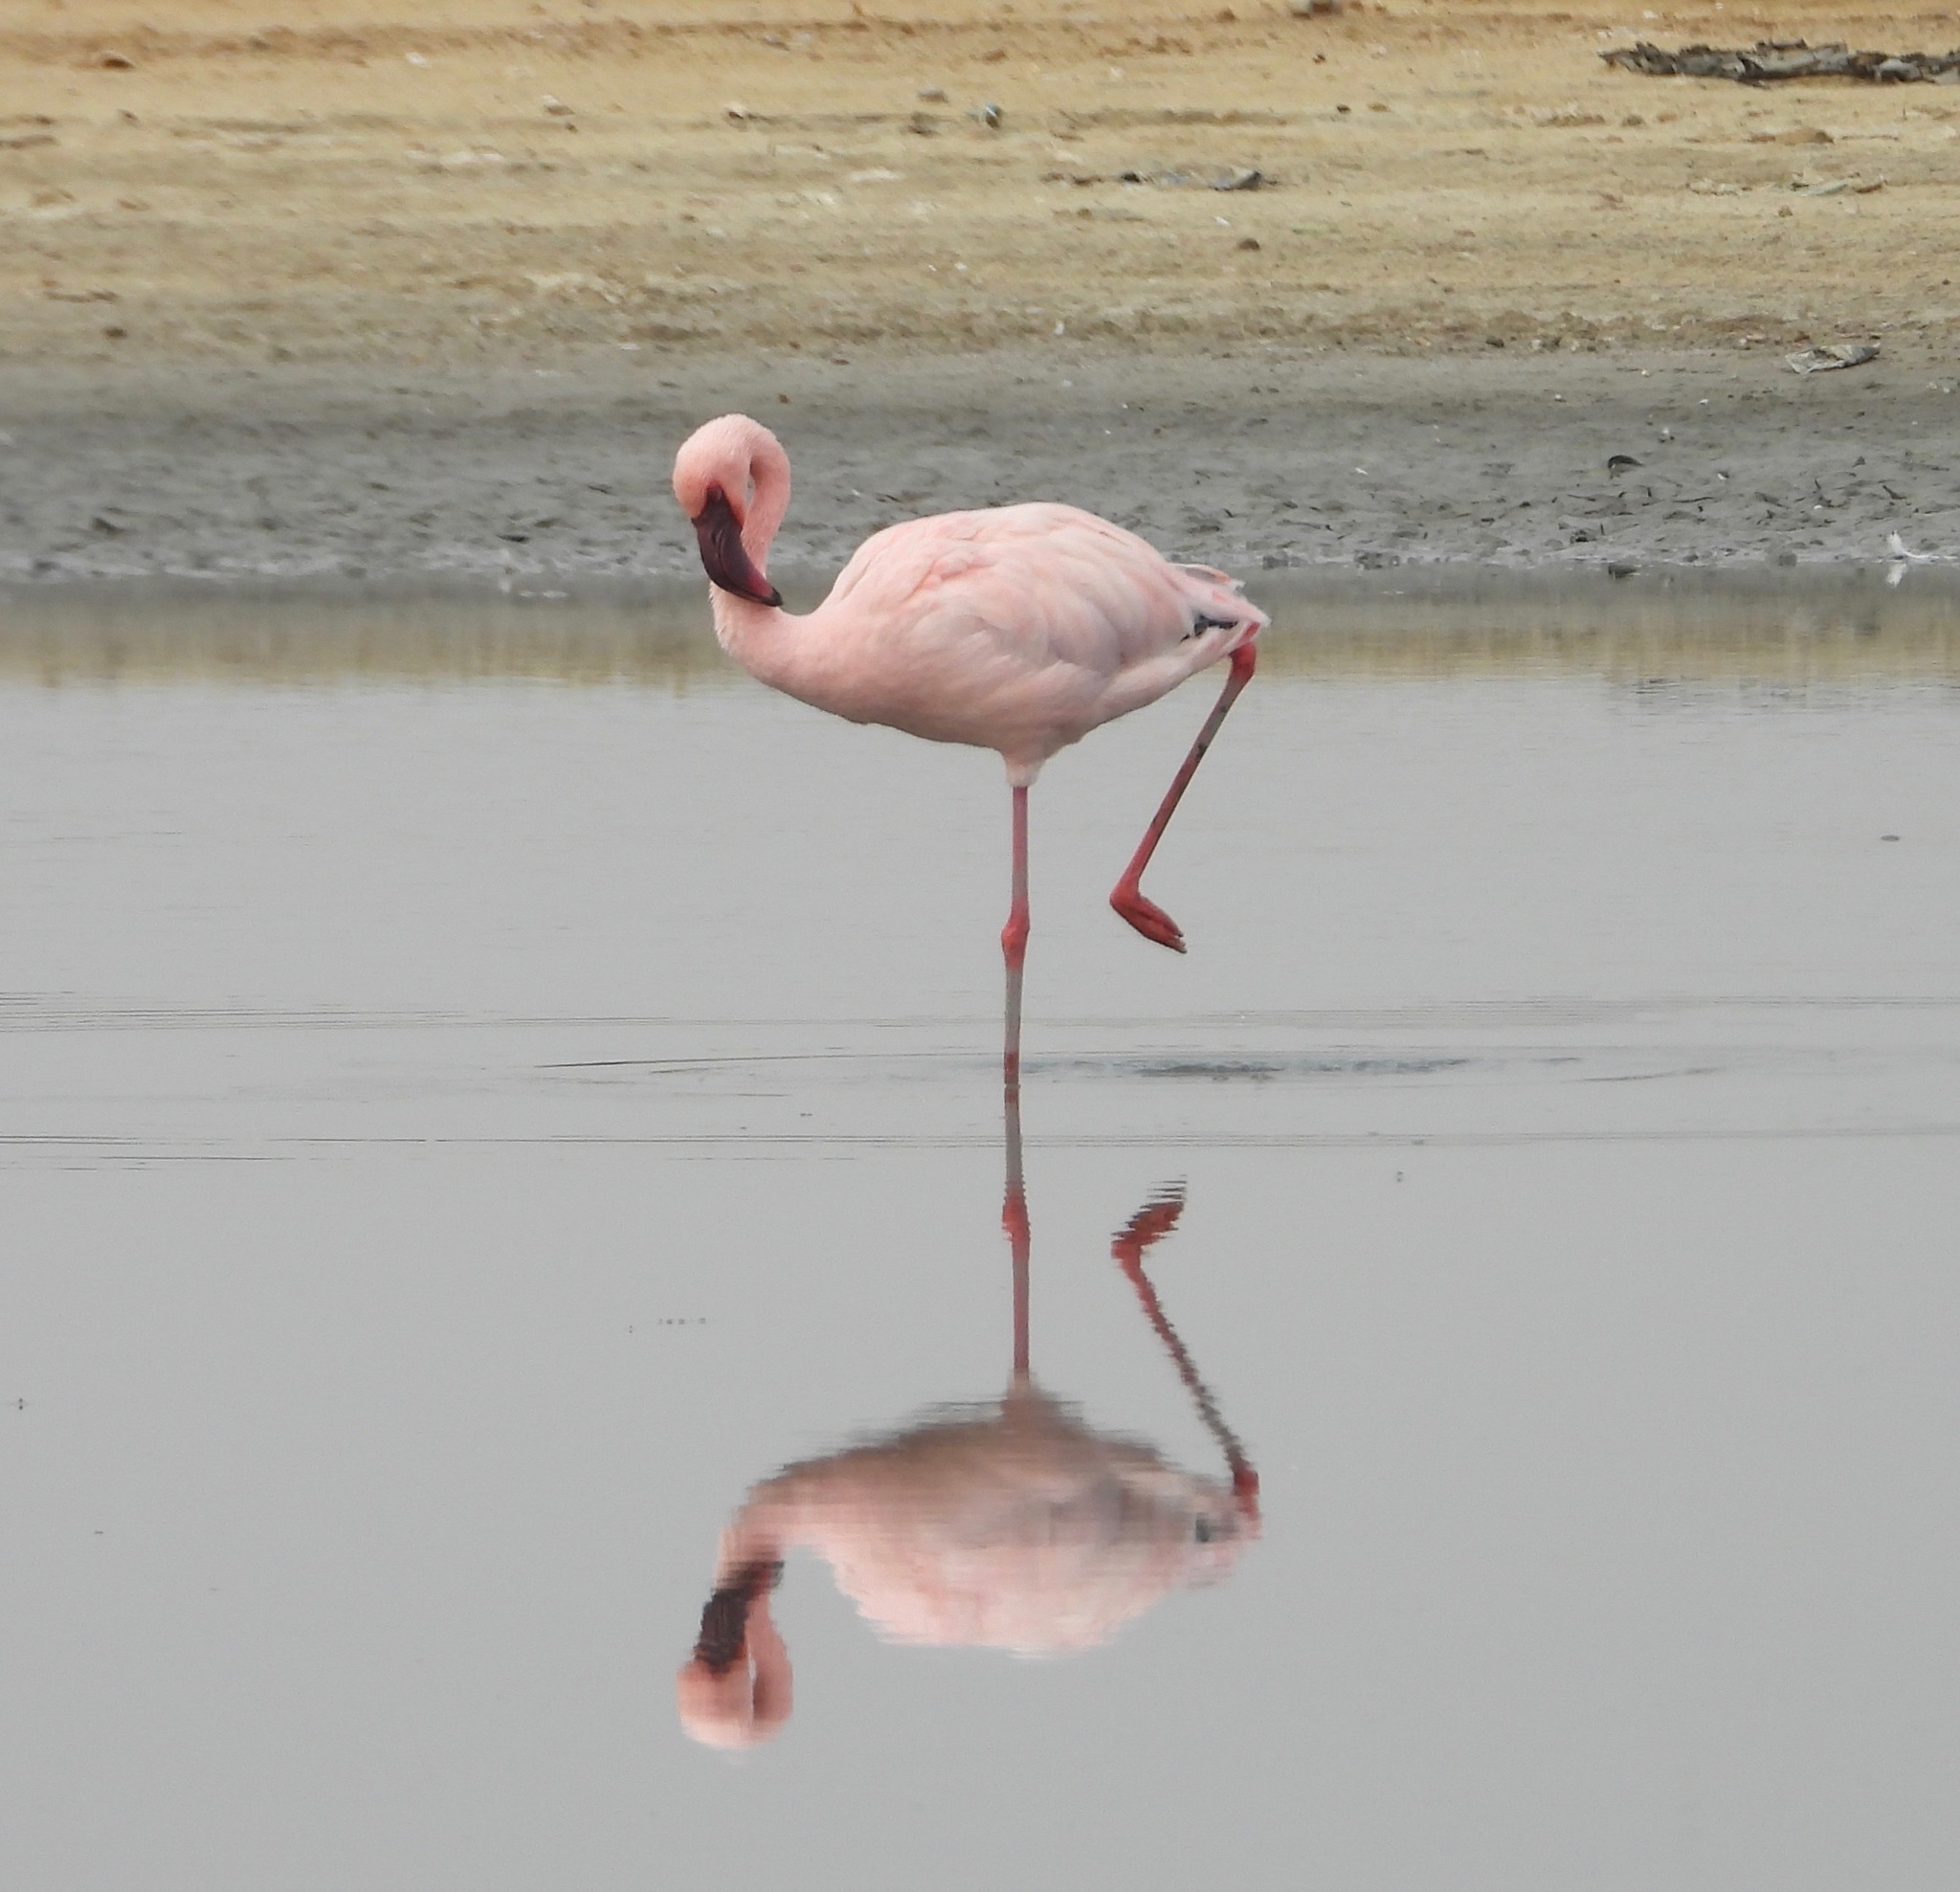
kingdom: Animalia
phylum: Chordata
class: Aves
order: Phoenicopteriformes
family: Phoenicopteridae
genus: Phoeniconaias
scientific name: Phoeniconaias minor
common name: Lesser flamingo
